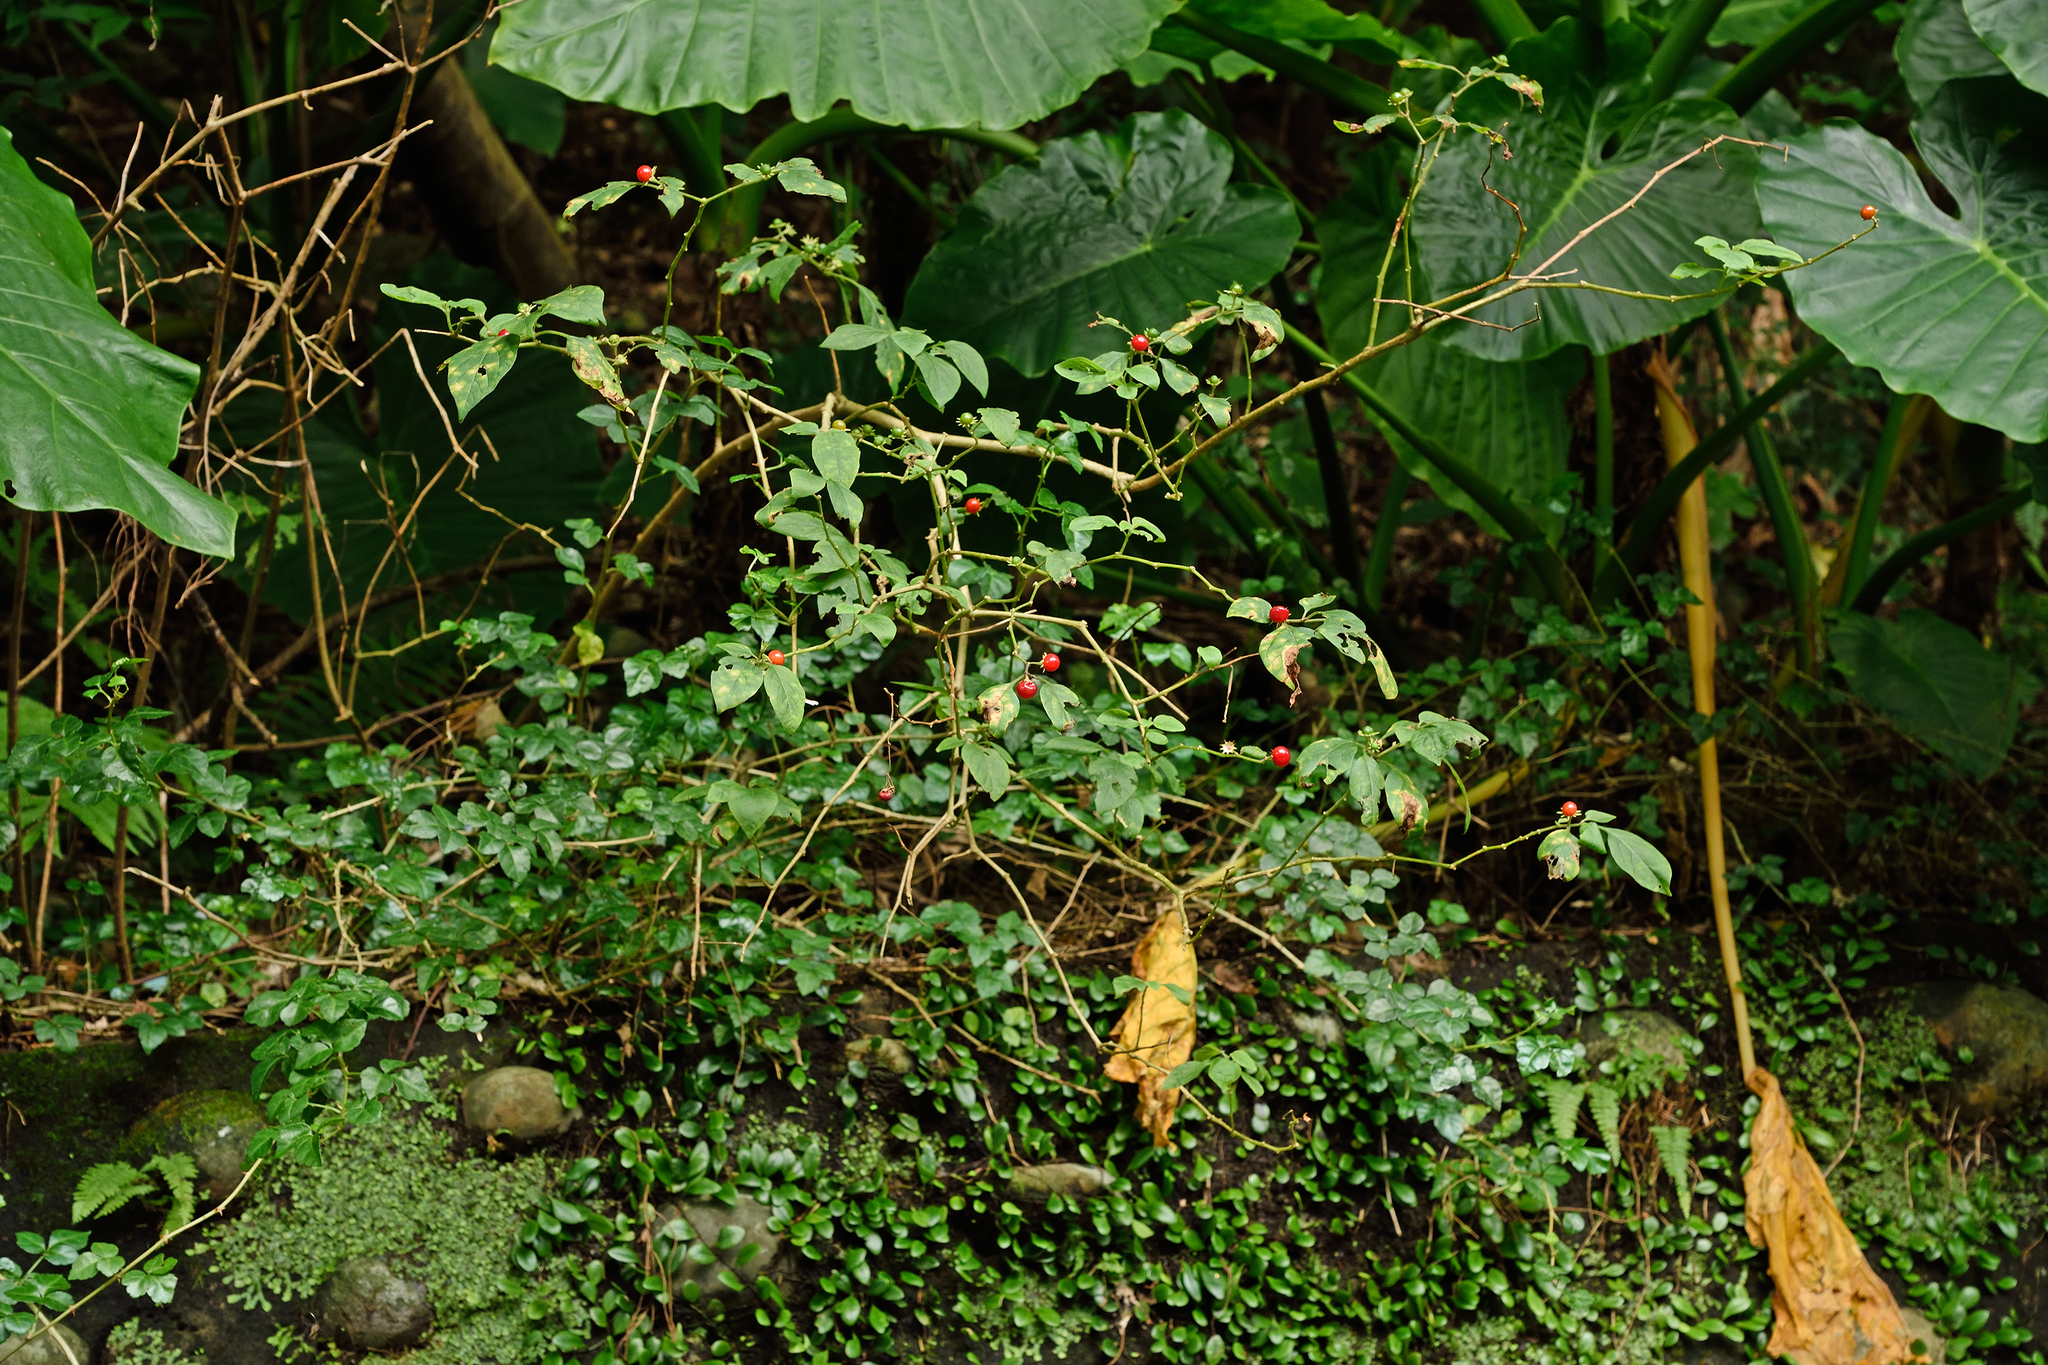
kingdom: Plantae
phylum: Tracheophyta
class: Magnoliopsida
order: Solanales
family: Solanaceae
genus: Lycianthes
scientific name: Lycianthes biflora
